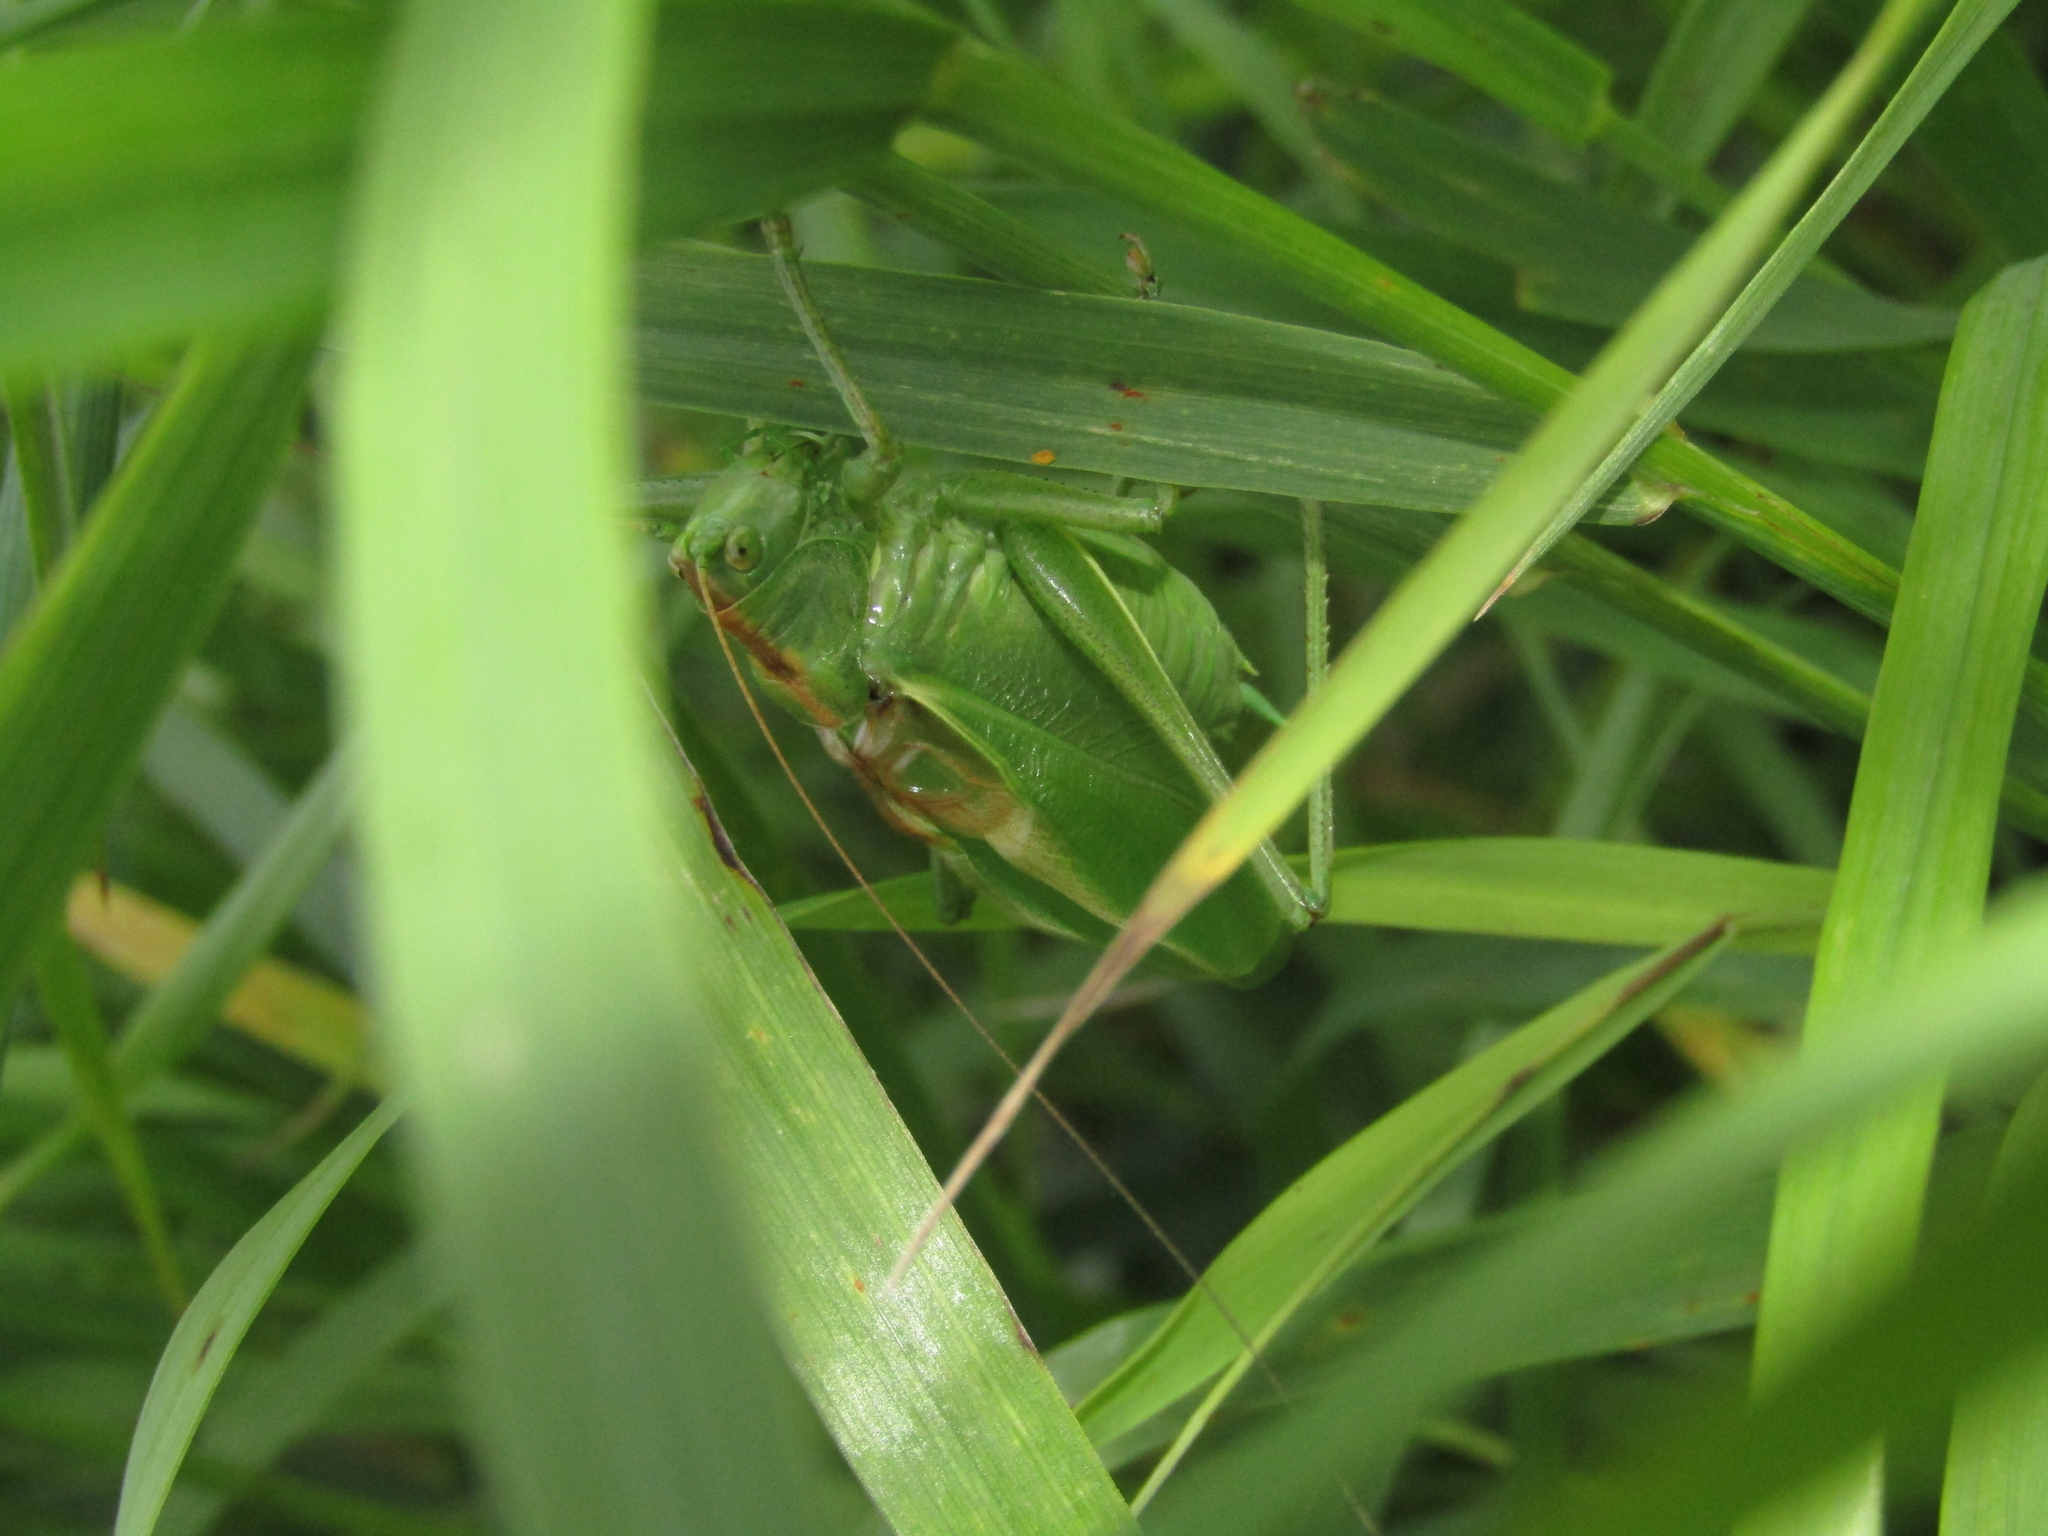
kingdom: Animalia
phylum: Arthropoda
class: Insecta
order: Orthoptera
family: Tettigoniidae
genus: Tettigonia
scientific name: Tettigonia cantans
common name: Upland green bush-cricket
